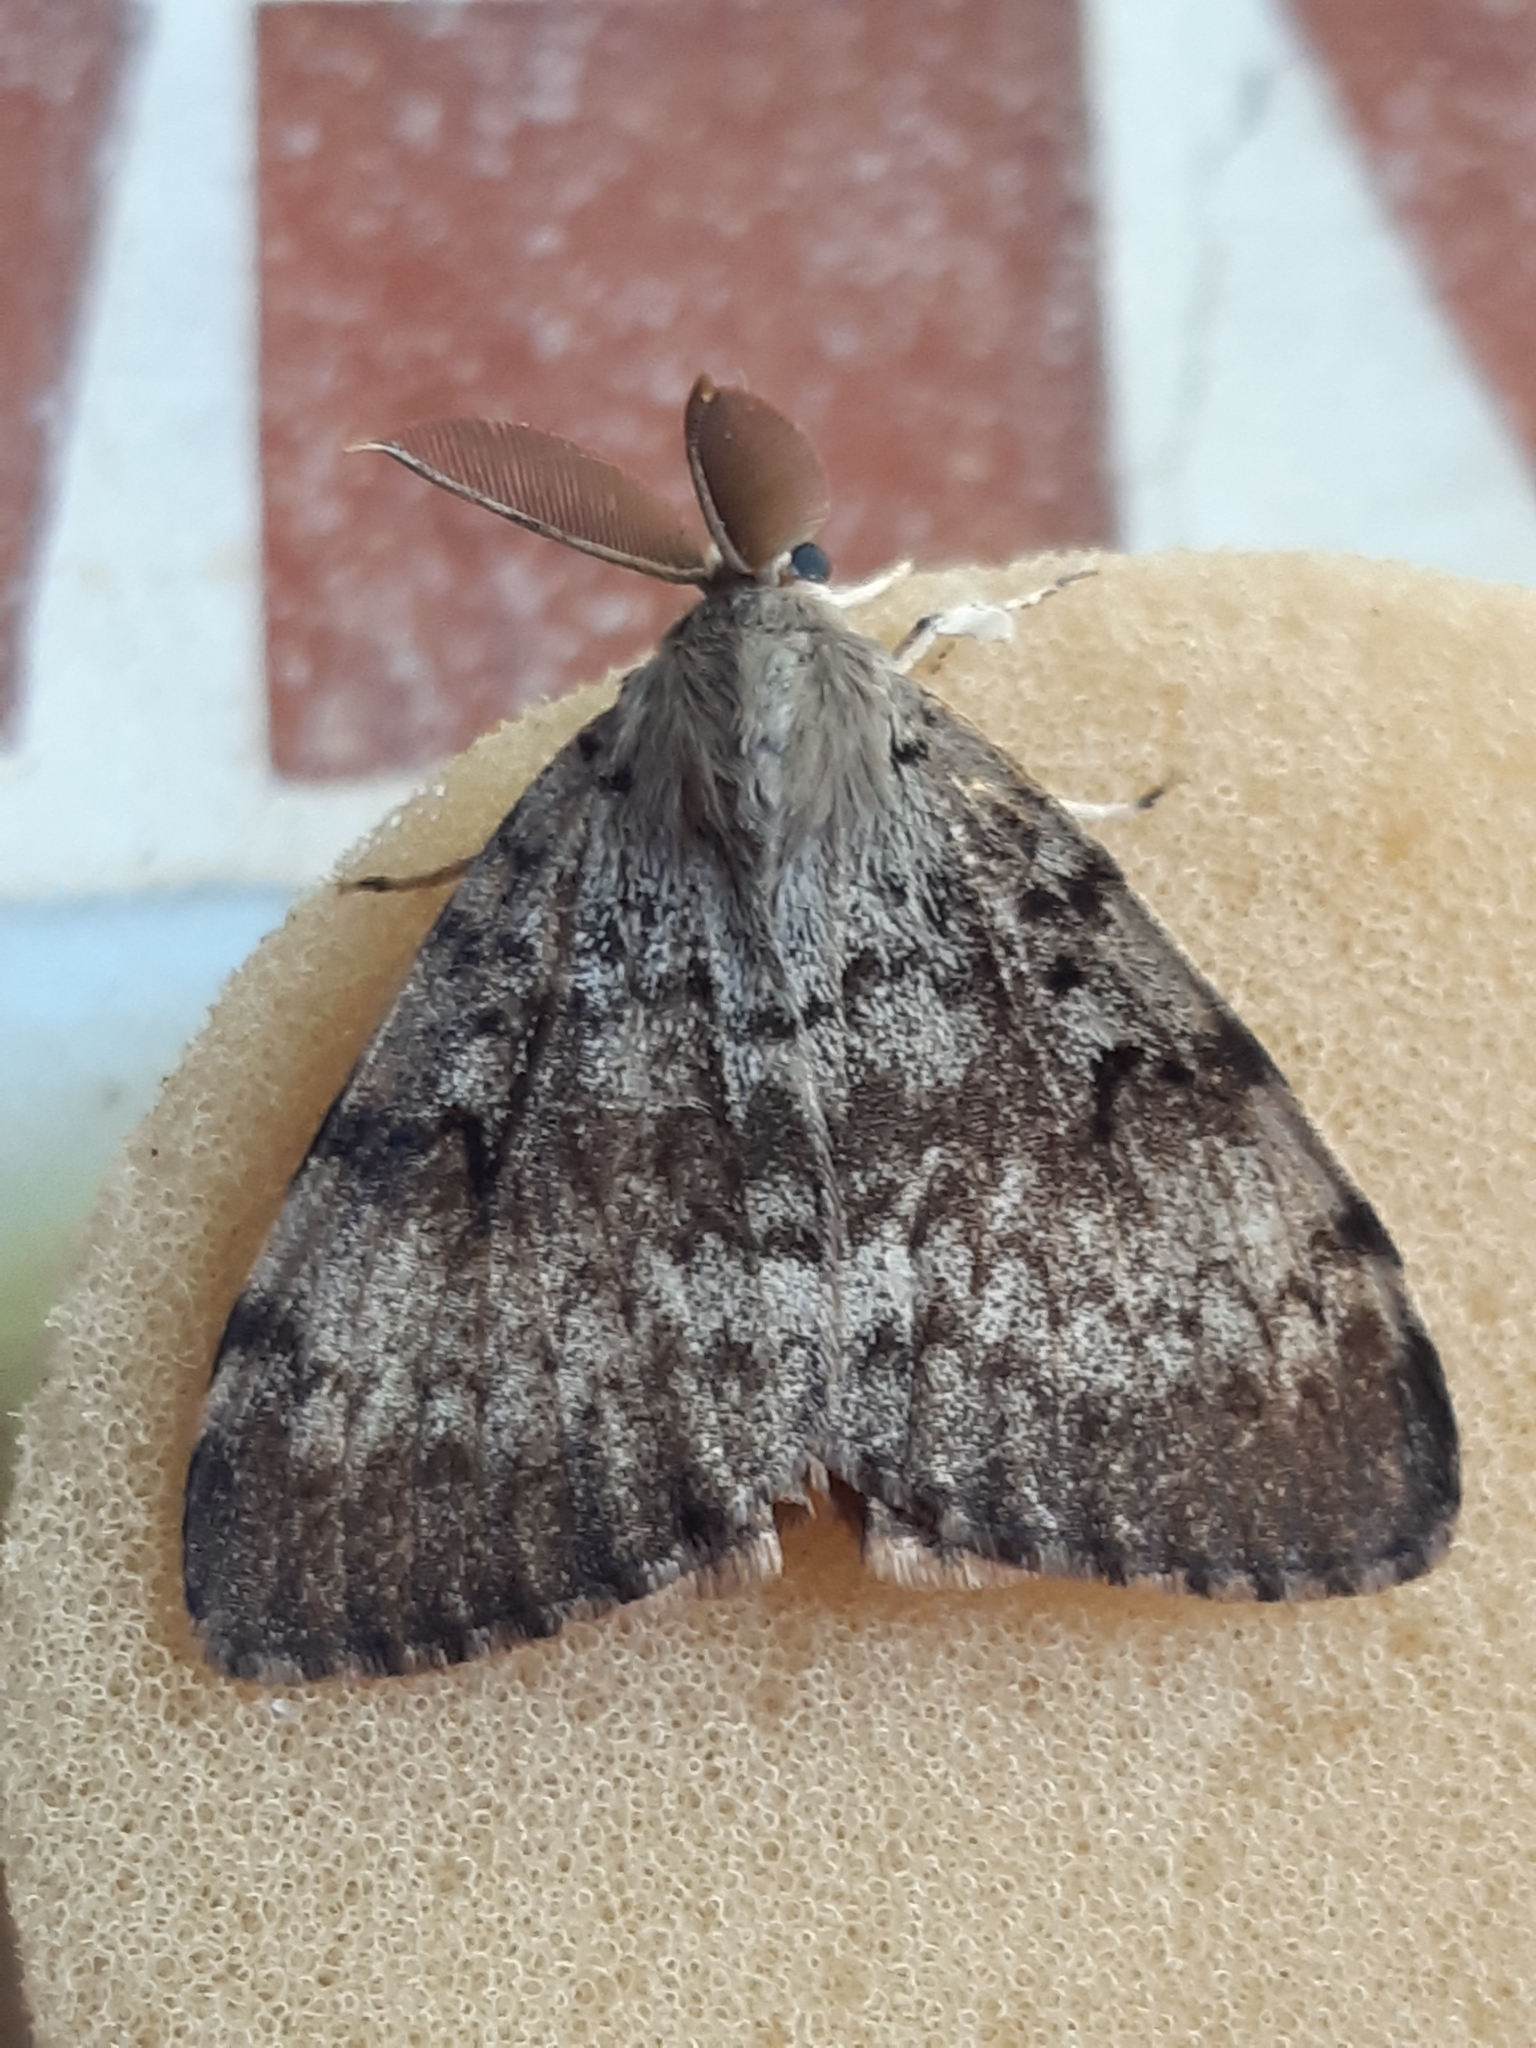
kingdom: Animalia
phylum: Arthropoda
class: Insecta
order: Lepidoptera
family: Erebidae
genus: Lymantria
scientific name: Lymantria dispar
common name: Gypsy moth
